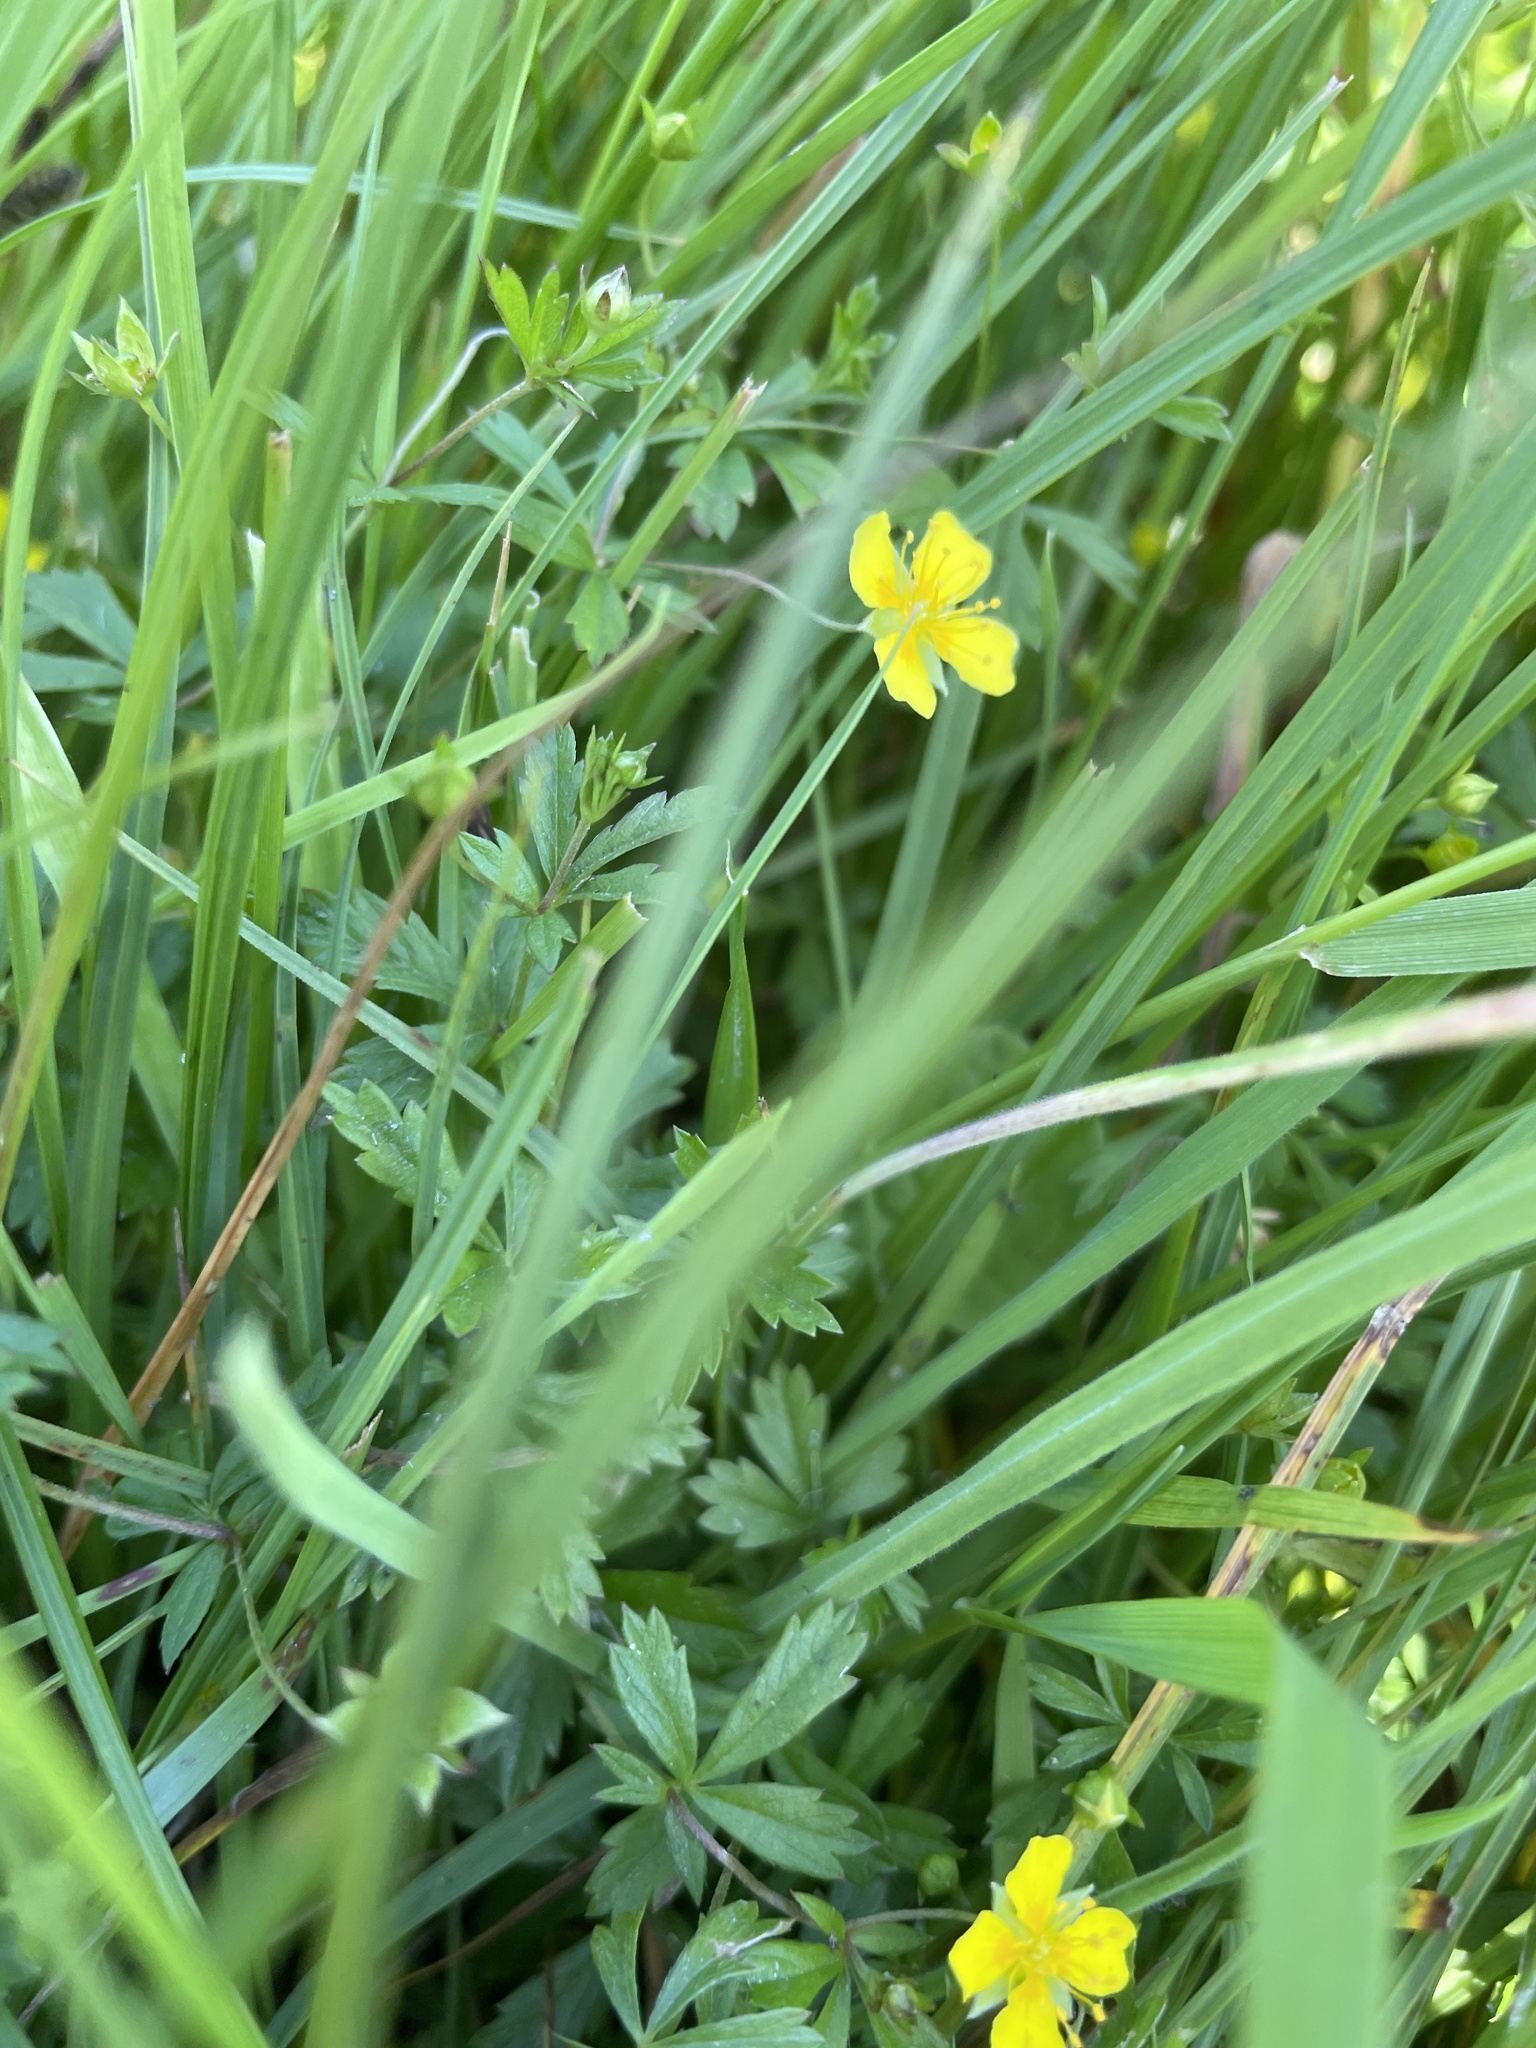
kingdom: Plantae
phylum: Tracheophyta
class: Magnoliopsida
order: Rosales
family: Rosaceae
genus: Potentilla
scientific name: Potentilla erecta
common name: Tormentil
